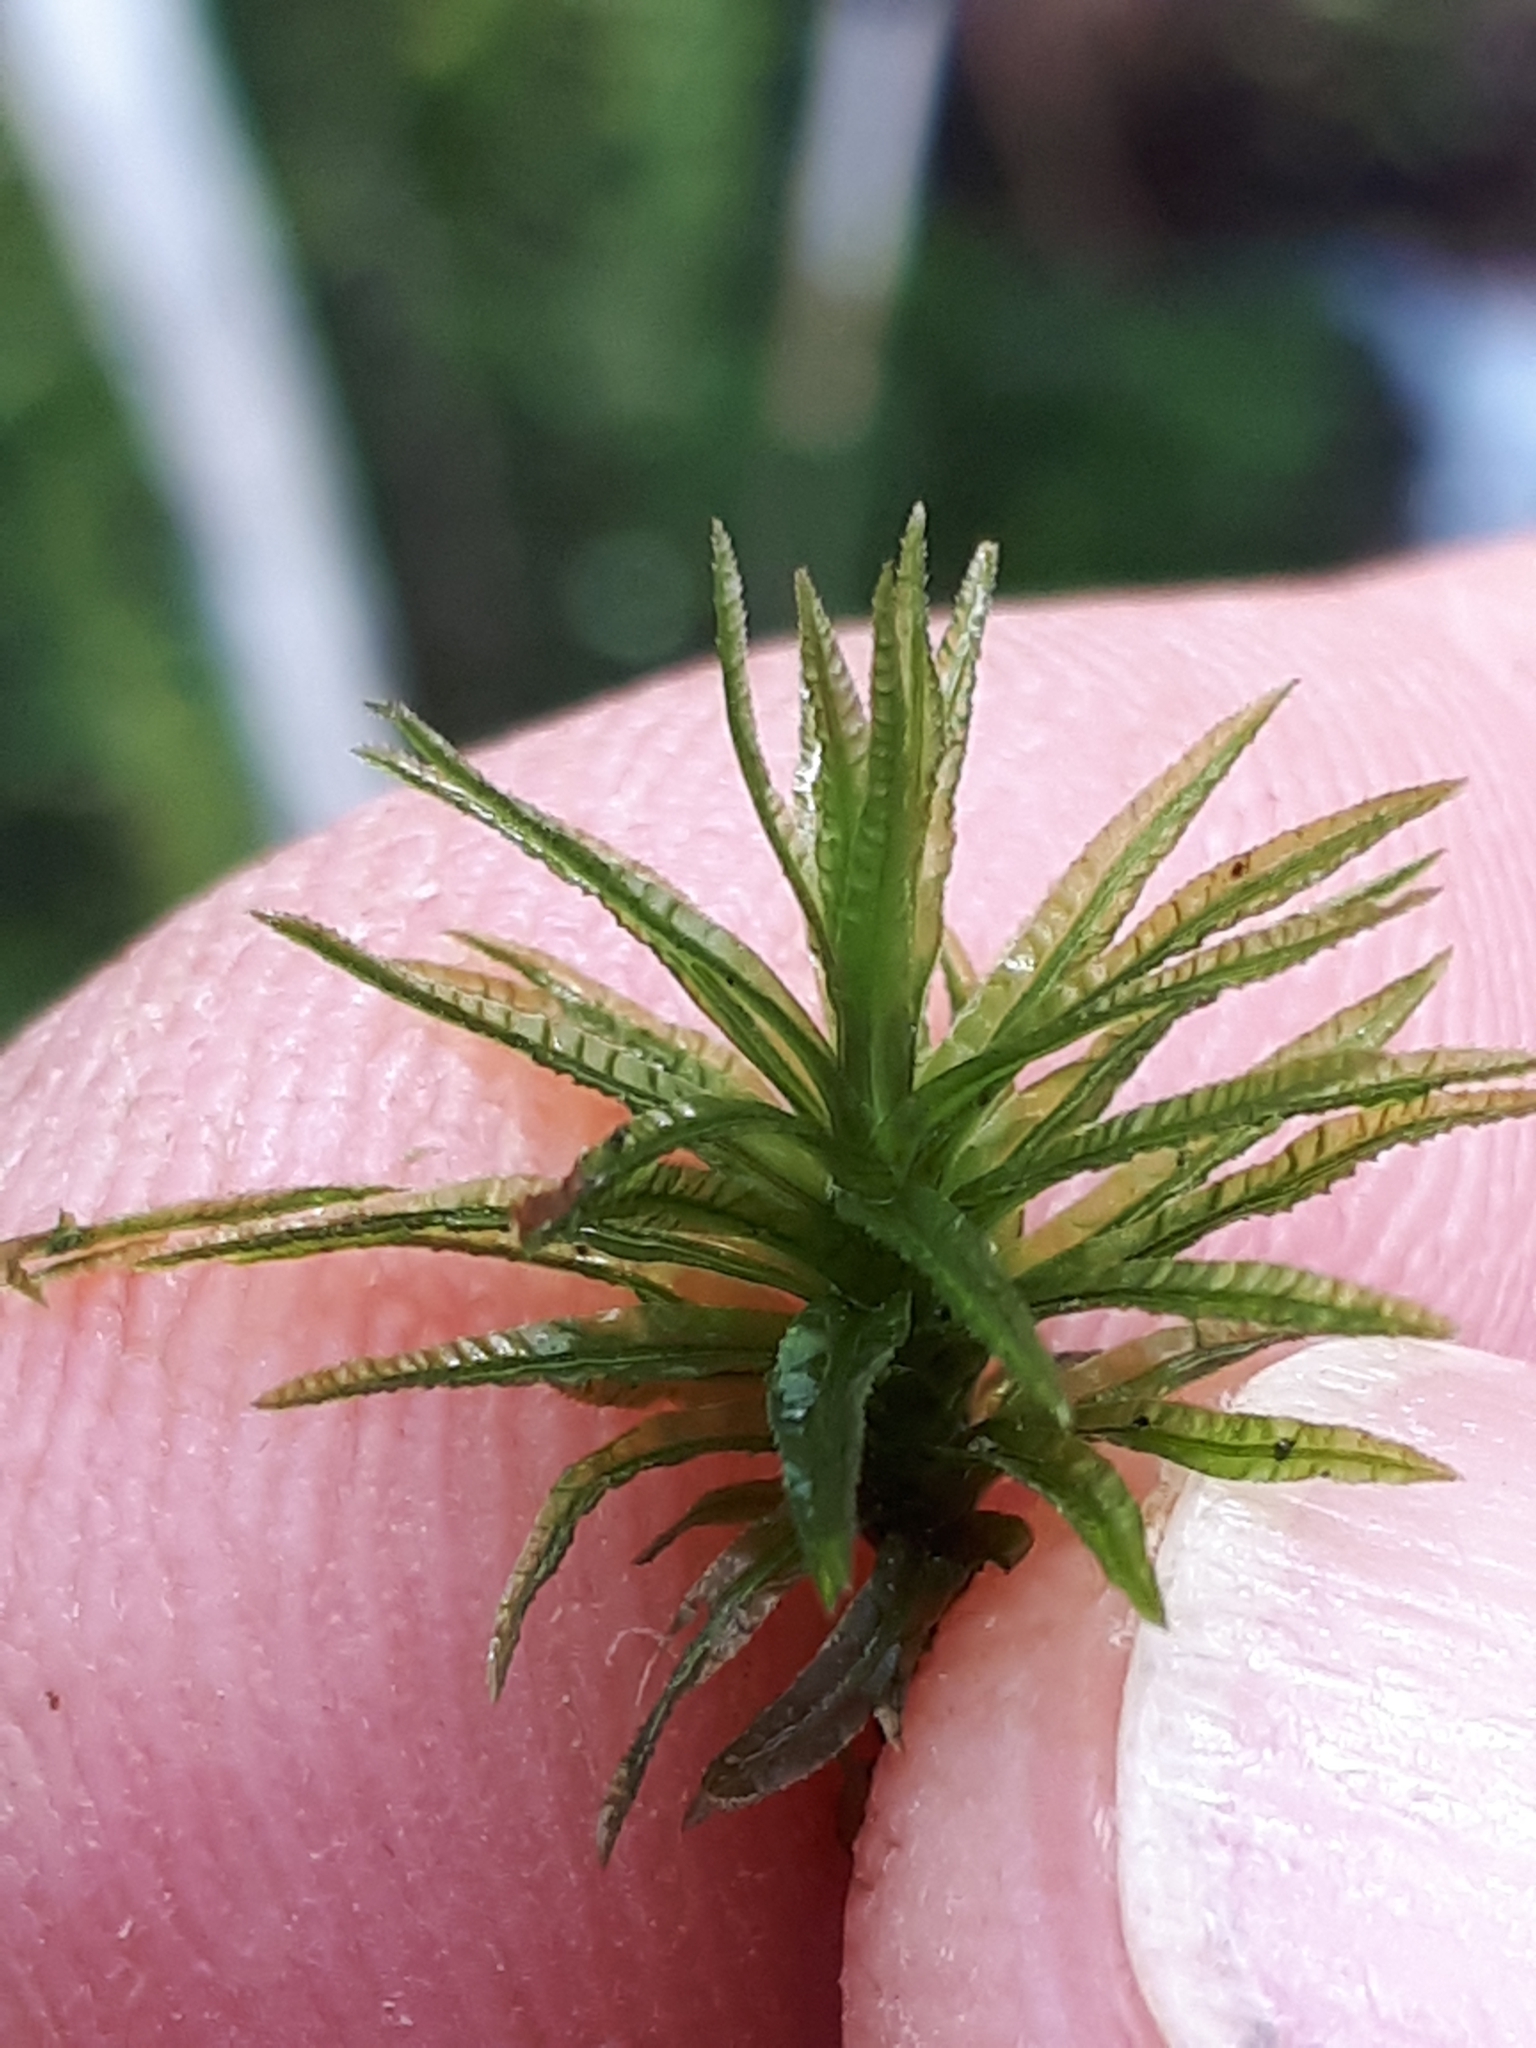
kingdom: Plantae
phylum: Bryophyta
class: Polytrichopsida
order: Polytrichales
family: Polytrichaceae
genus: Atrichum
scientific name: Atrichum undulatum
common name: Common smoothcap
